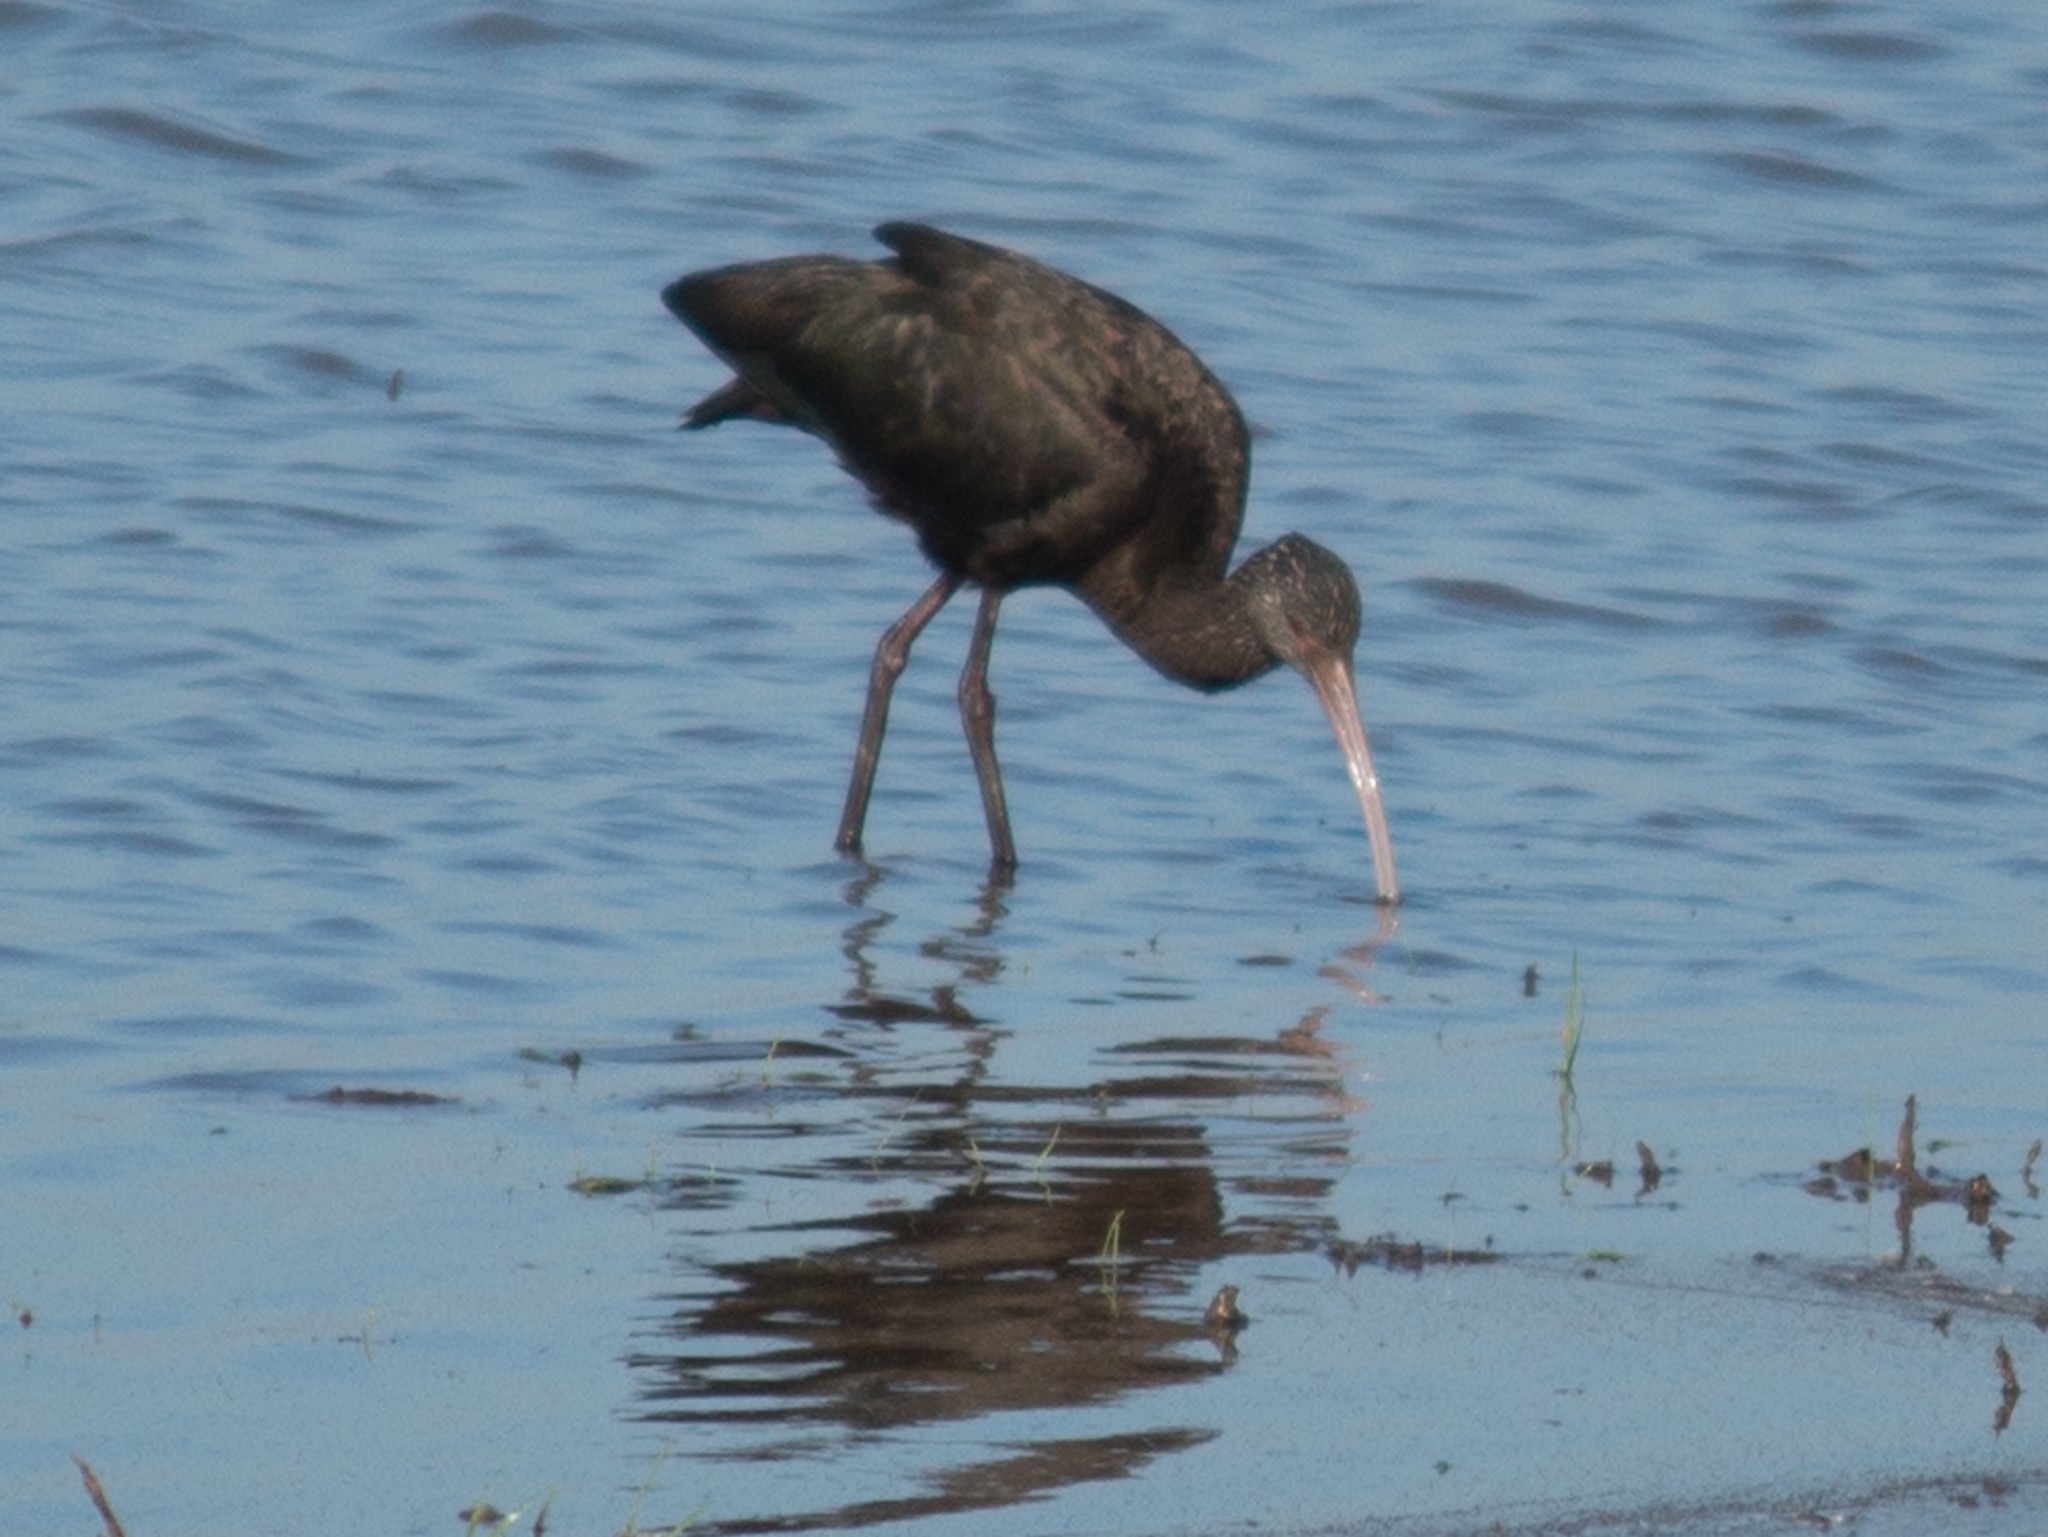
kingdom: Animalia
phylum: Chordata
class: Aves
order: Pelecaniformes
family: Threskiornithidae
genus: Plegadis
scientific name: Plegadis chihi
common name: White-faced ibis
